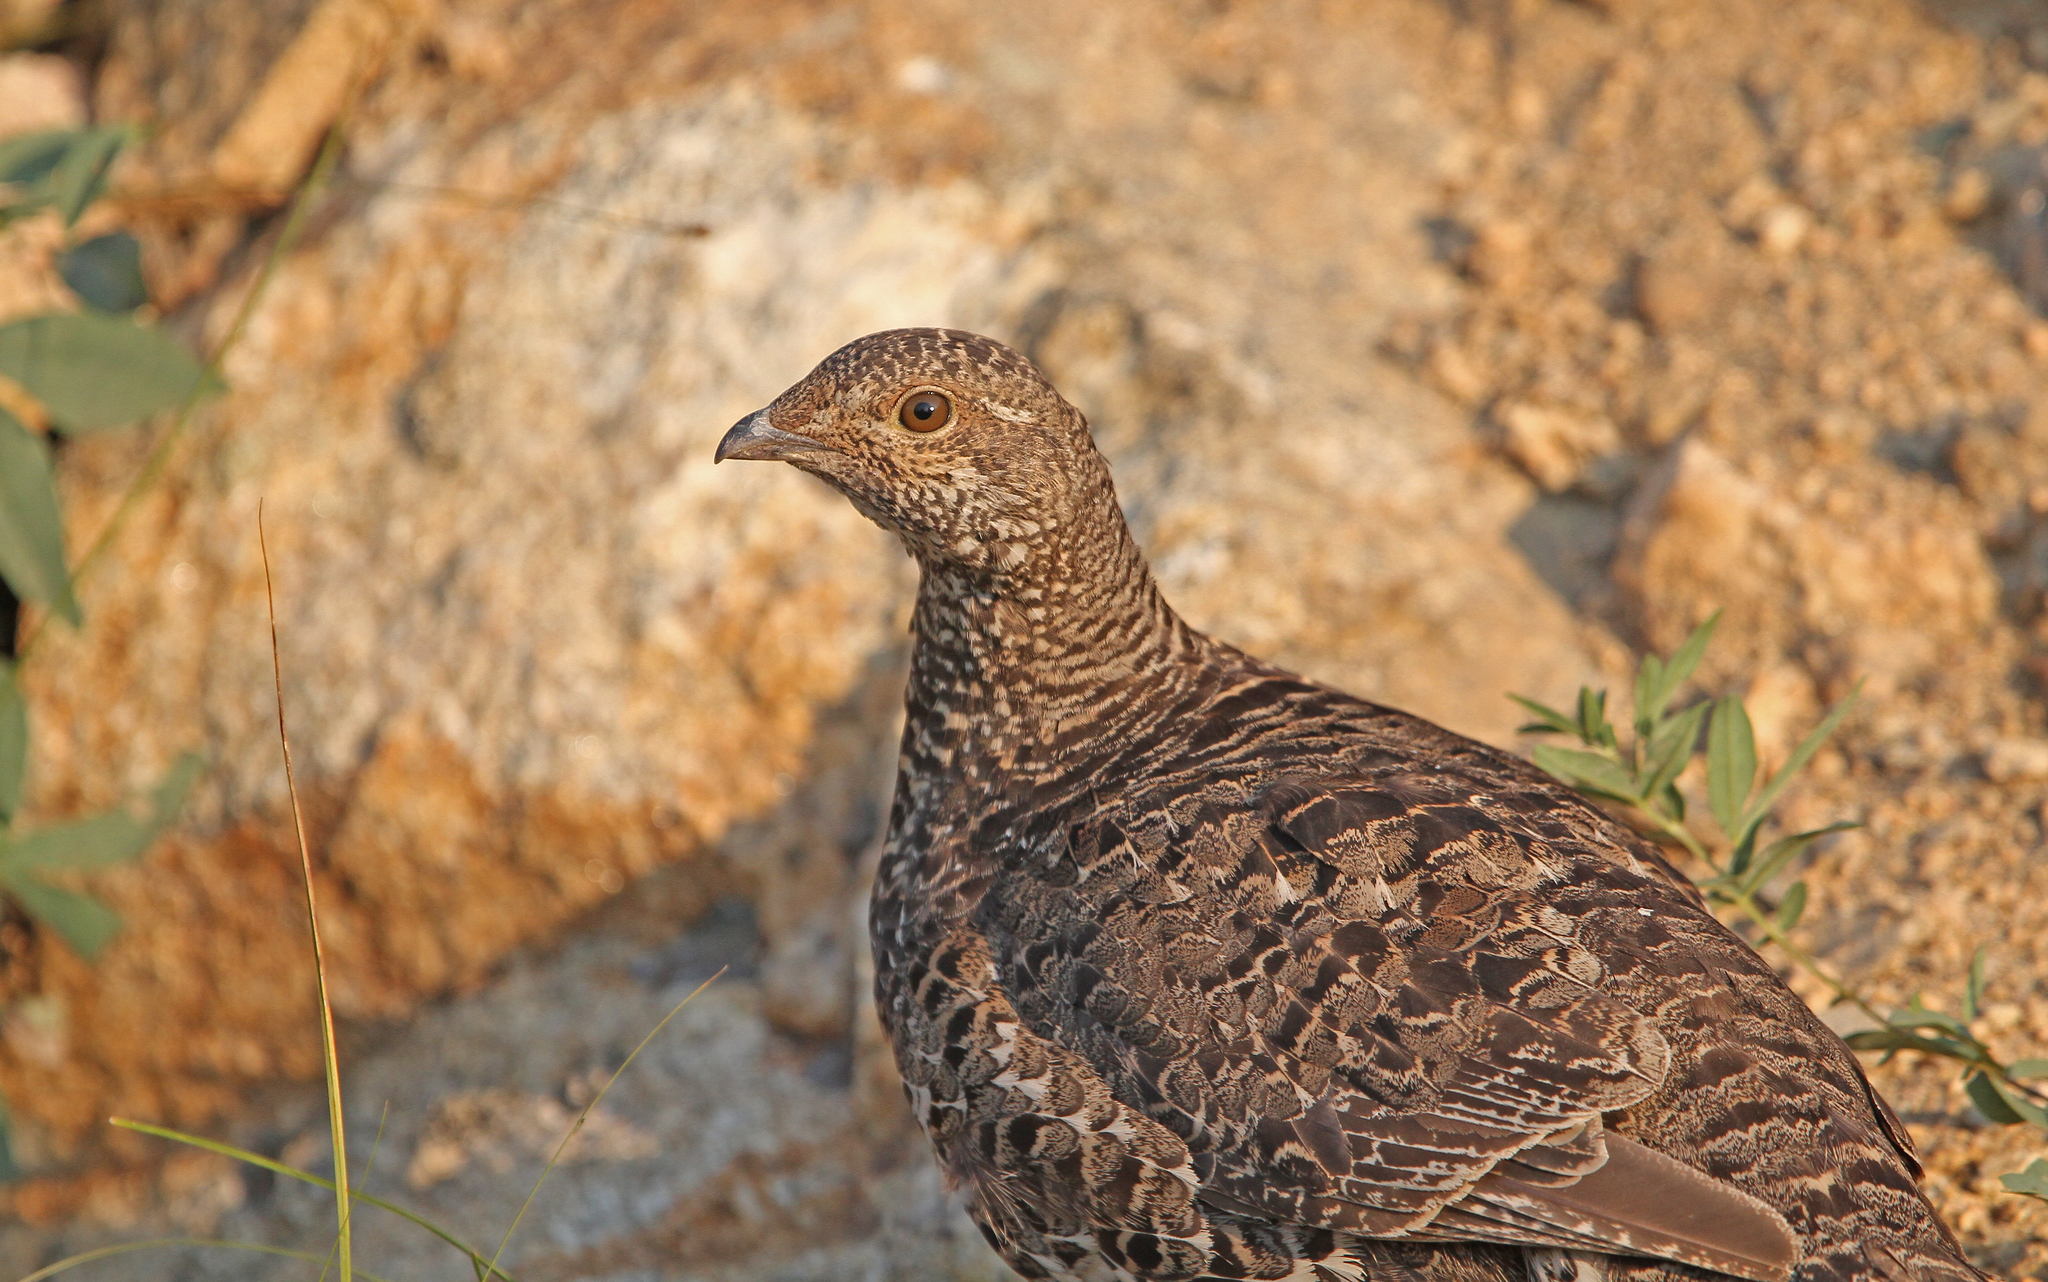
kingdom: Animalia
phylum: Chordata
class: Aves
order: Galliformes
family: Phasianidae
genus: Dendragapus
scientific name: Dendragapus obscurus
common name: Dusky grouse
